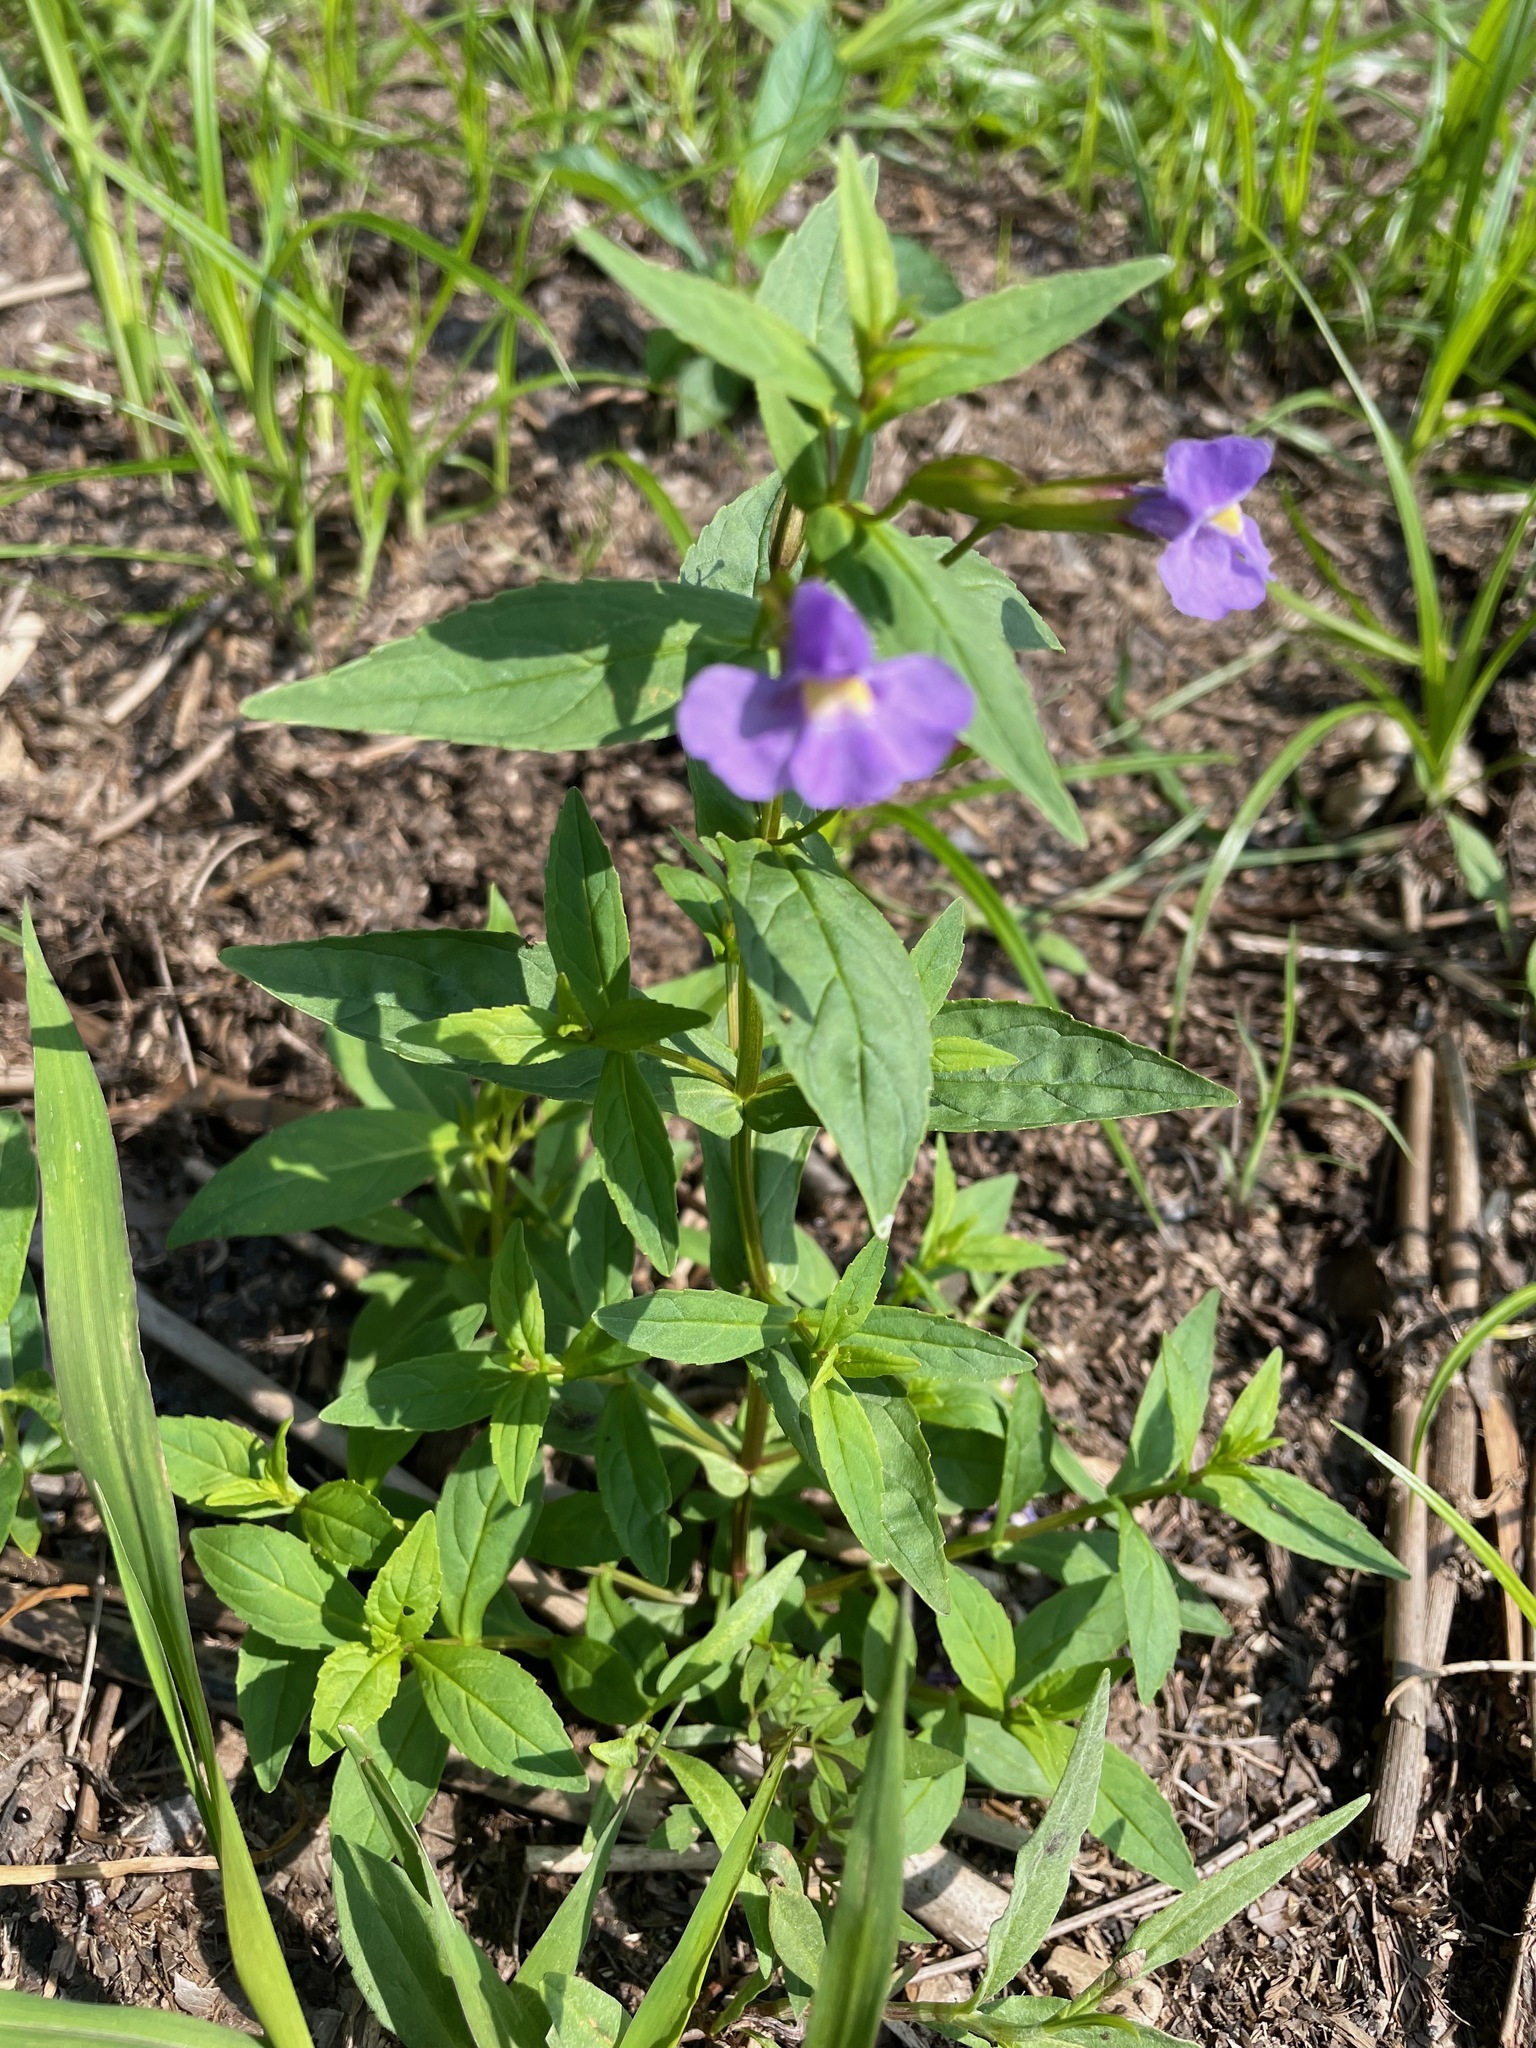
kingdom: Plantae
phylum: Tracheophyta
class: Magnoliopsida
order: Lamiales
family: Phrymaceae
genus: Mimulus
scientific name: Mimulus ringens
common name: Allegheny monkeyflower
